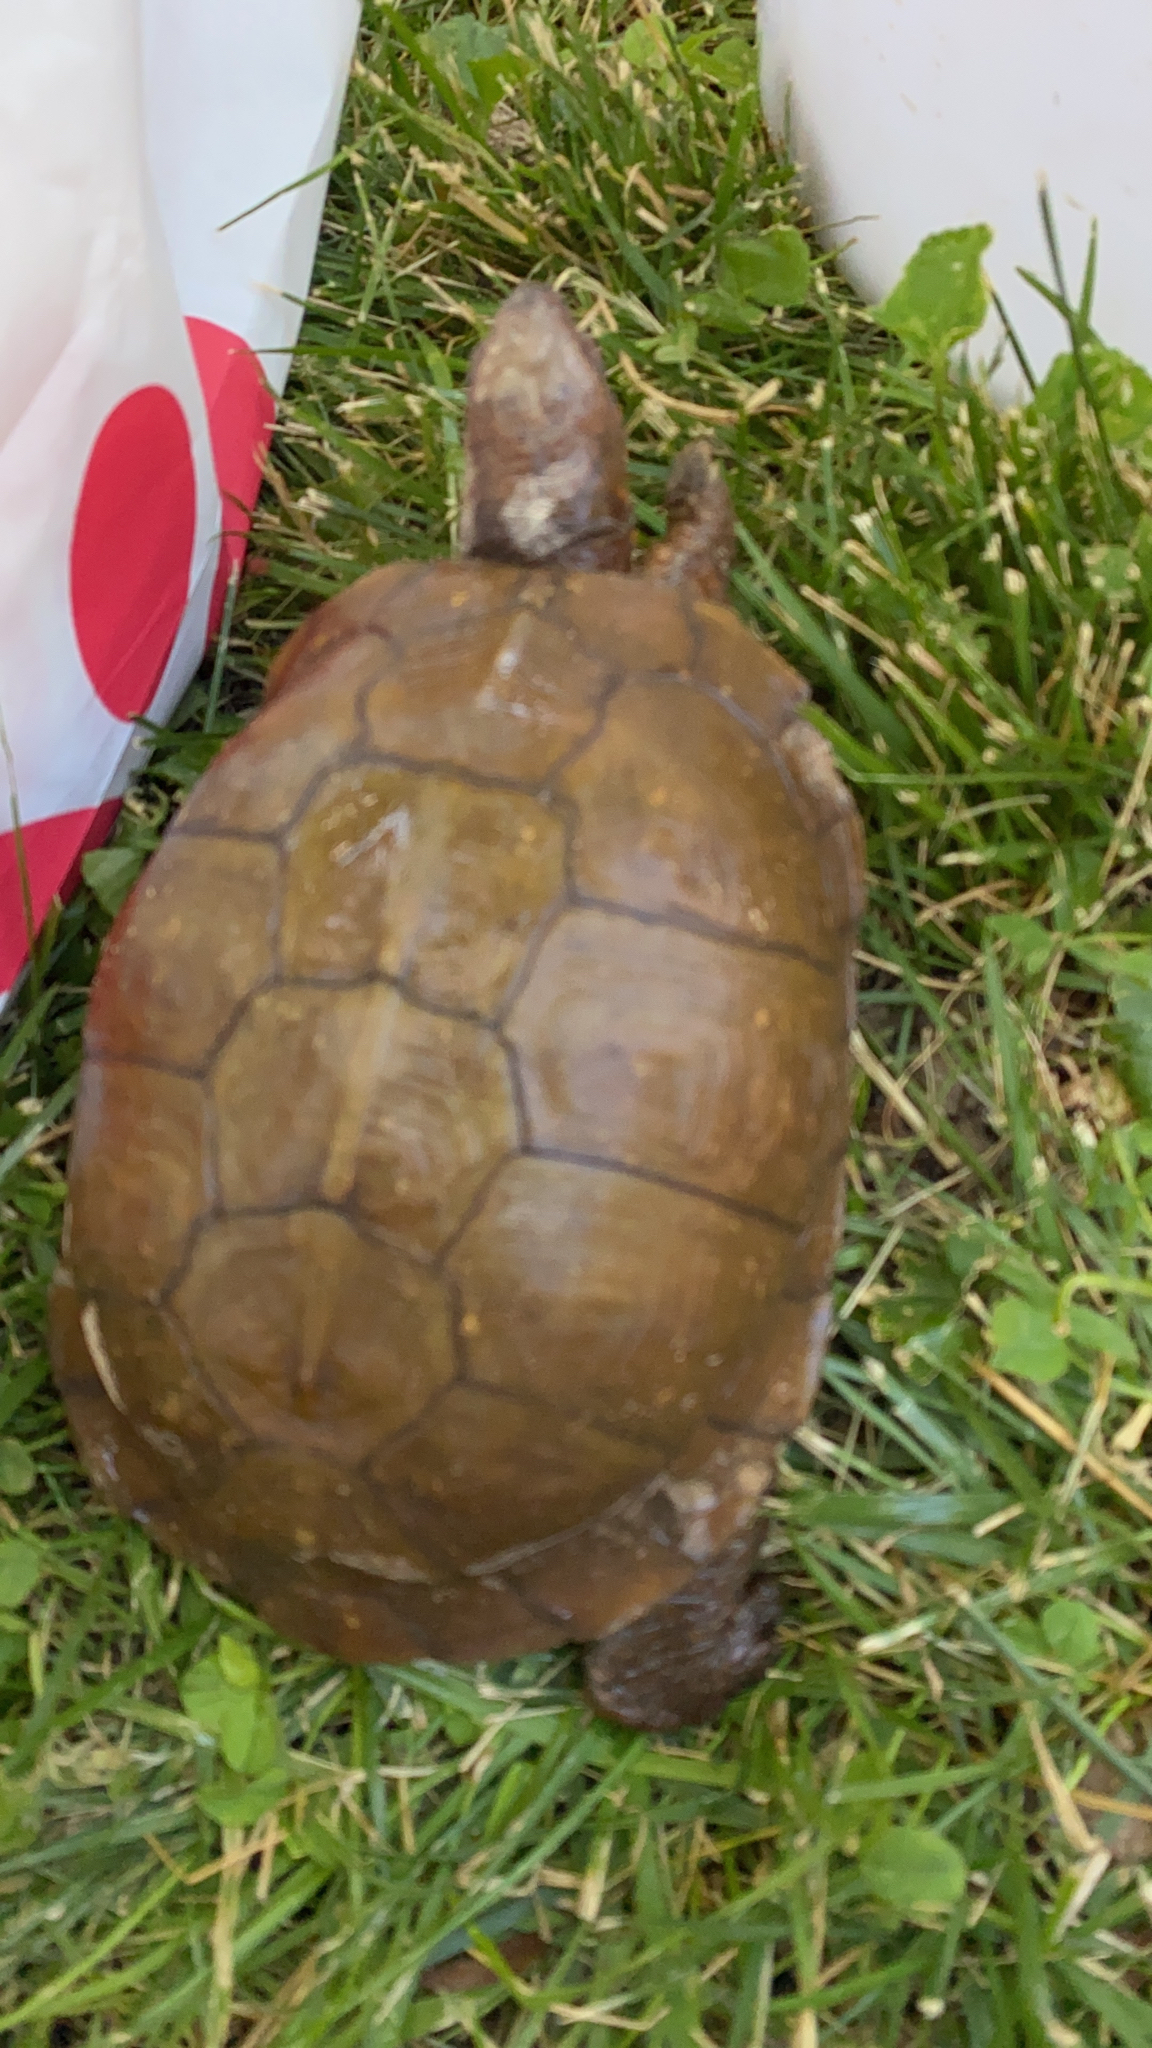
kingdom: Animalia
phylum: Chordata
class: Testudines
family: Emydidae
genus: Terrapene
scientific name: Terrapene carolina
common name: Common box turtle
